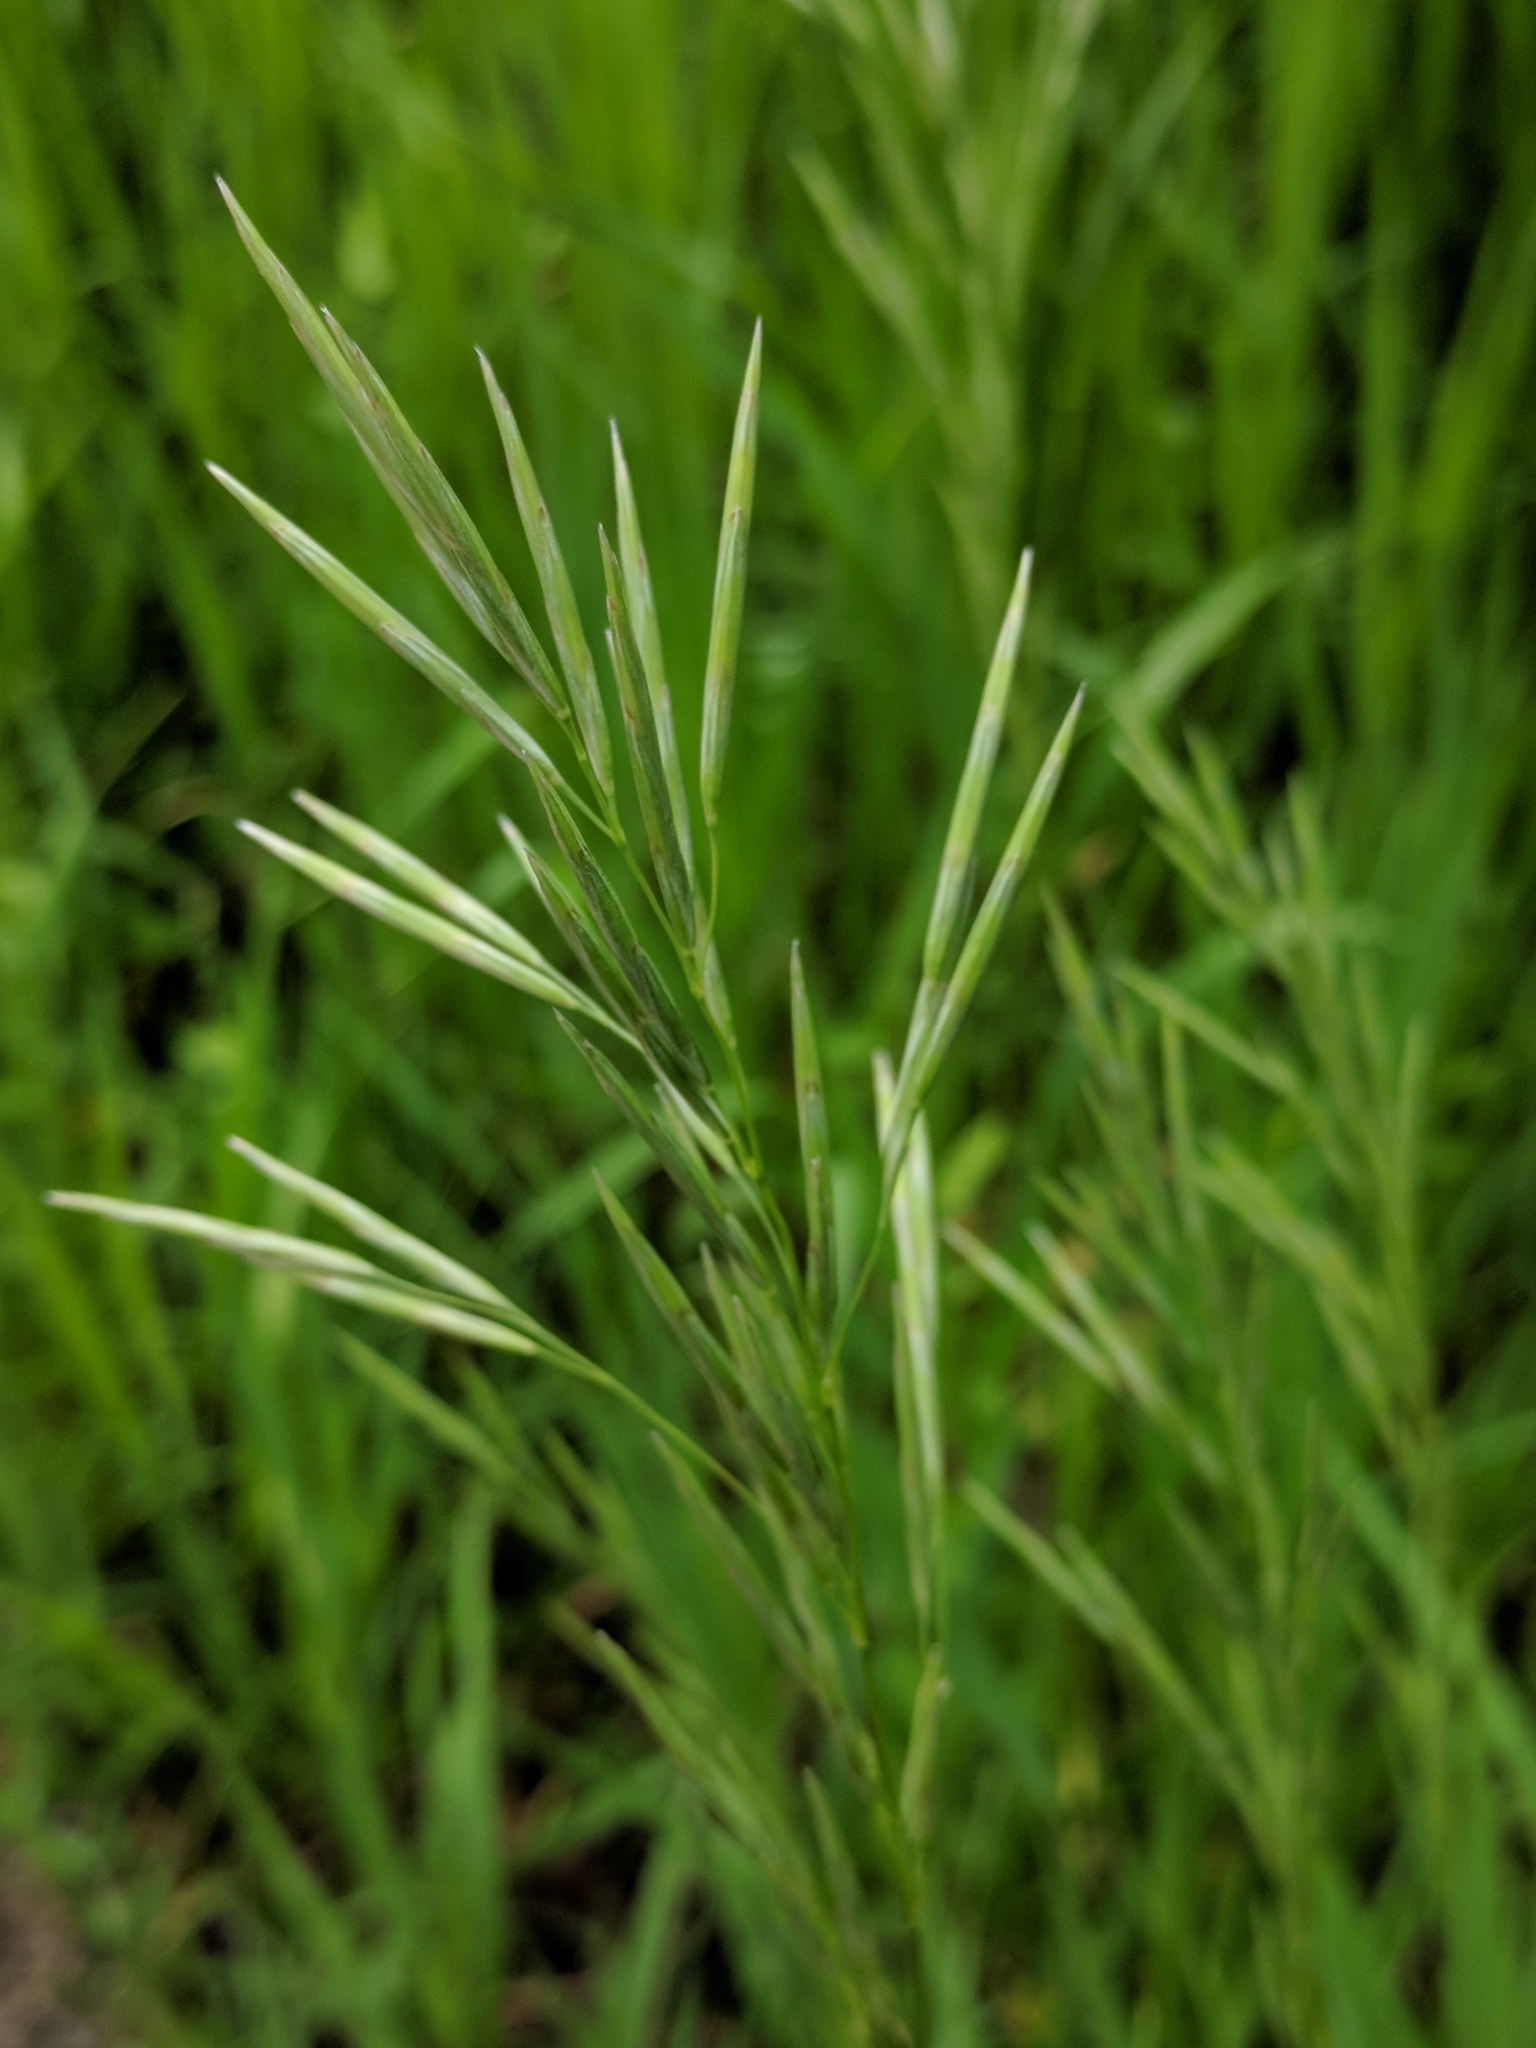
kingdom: Plantae
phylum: Tracheophyta
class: Liliopsida
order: Poales
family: Poaceae
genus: Bromus
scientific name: Bromus inermis
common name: Smooth brome
